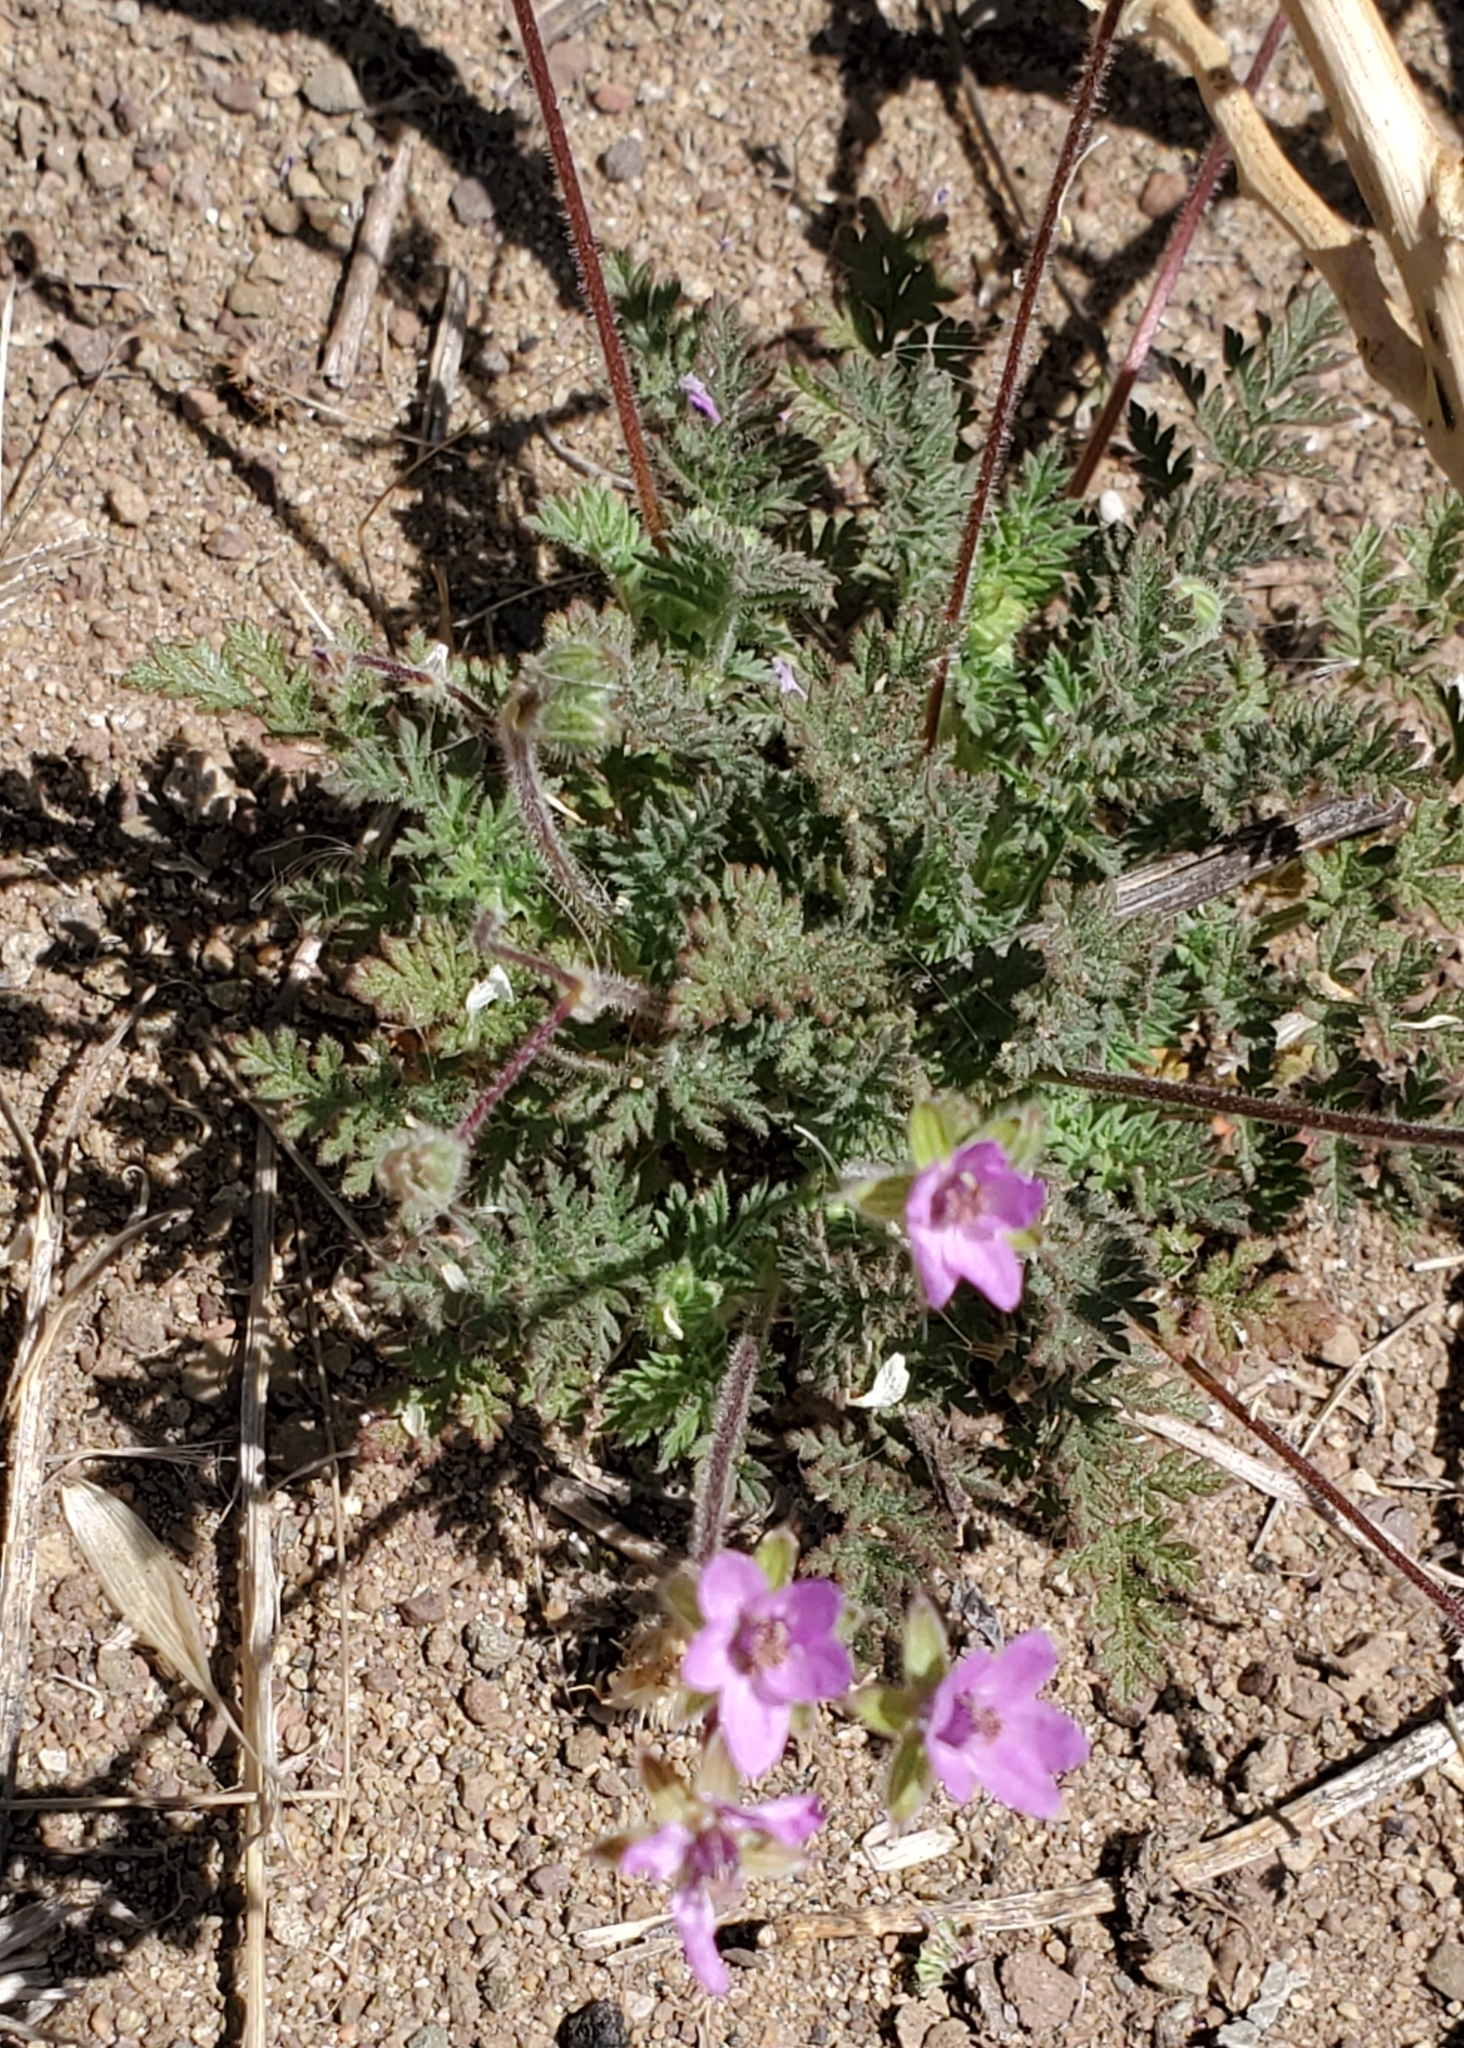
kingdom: Plantae
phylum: Tracheophyta
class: Magnoliopsida
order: Geraniales
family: Geraniaceae
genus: Erodium
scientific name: Erodium cicutarium
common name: Common stork's-bill
